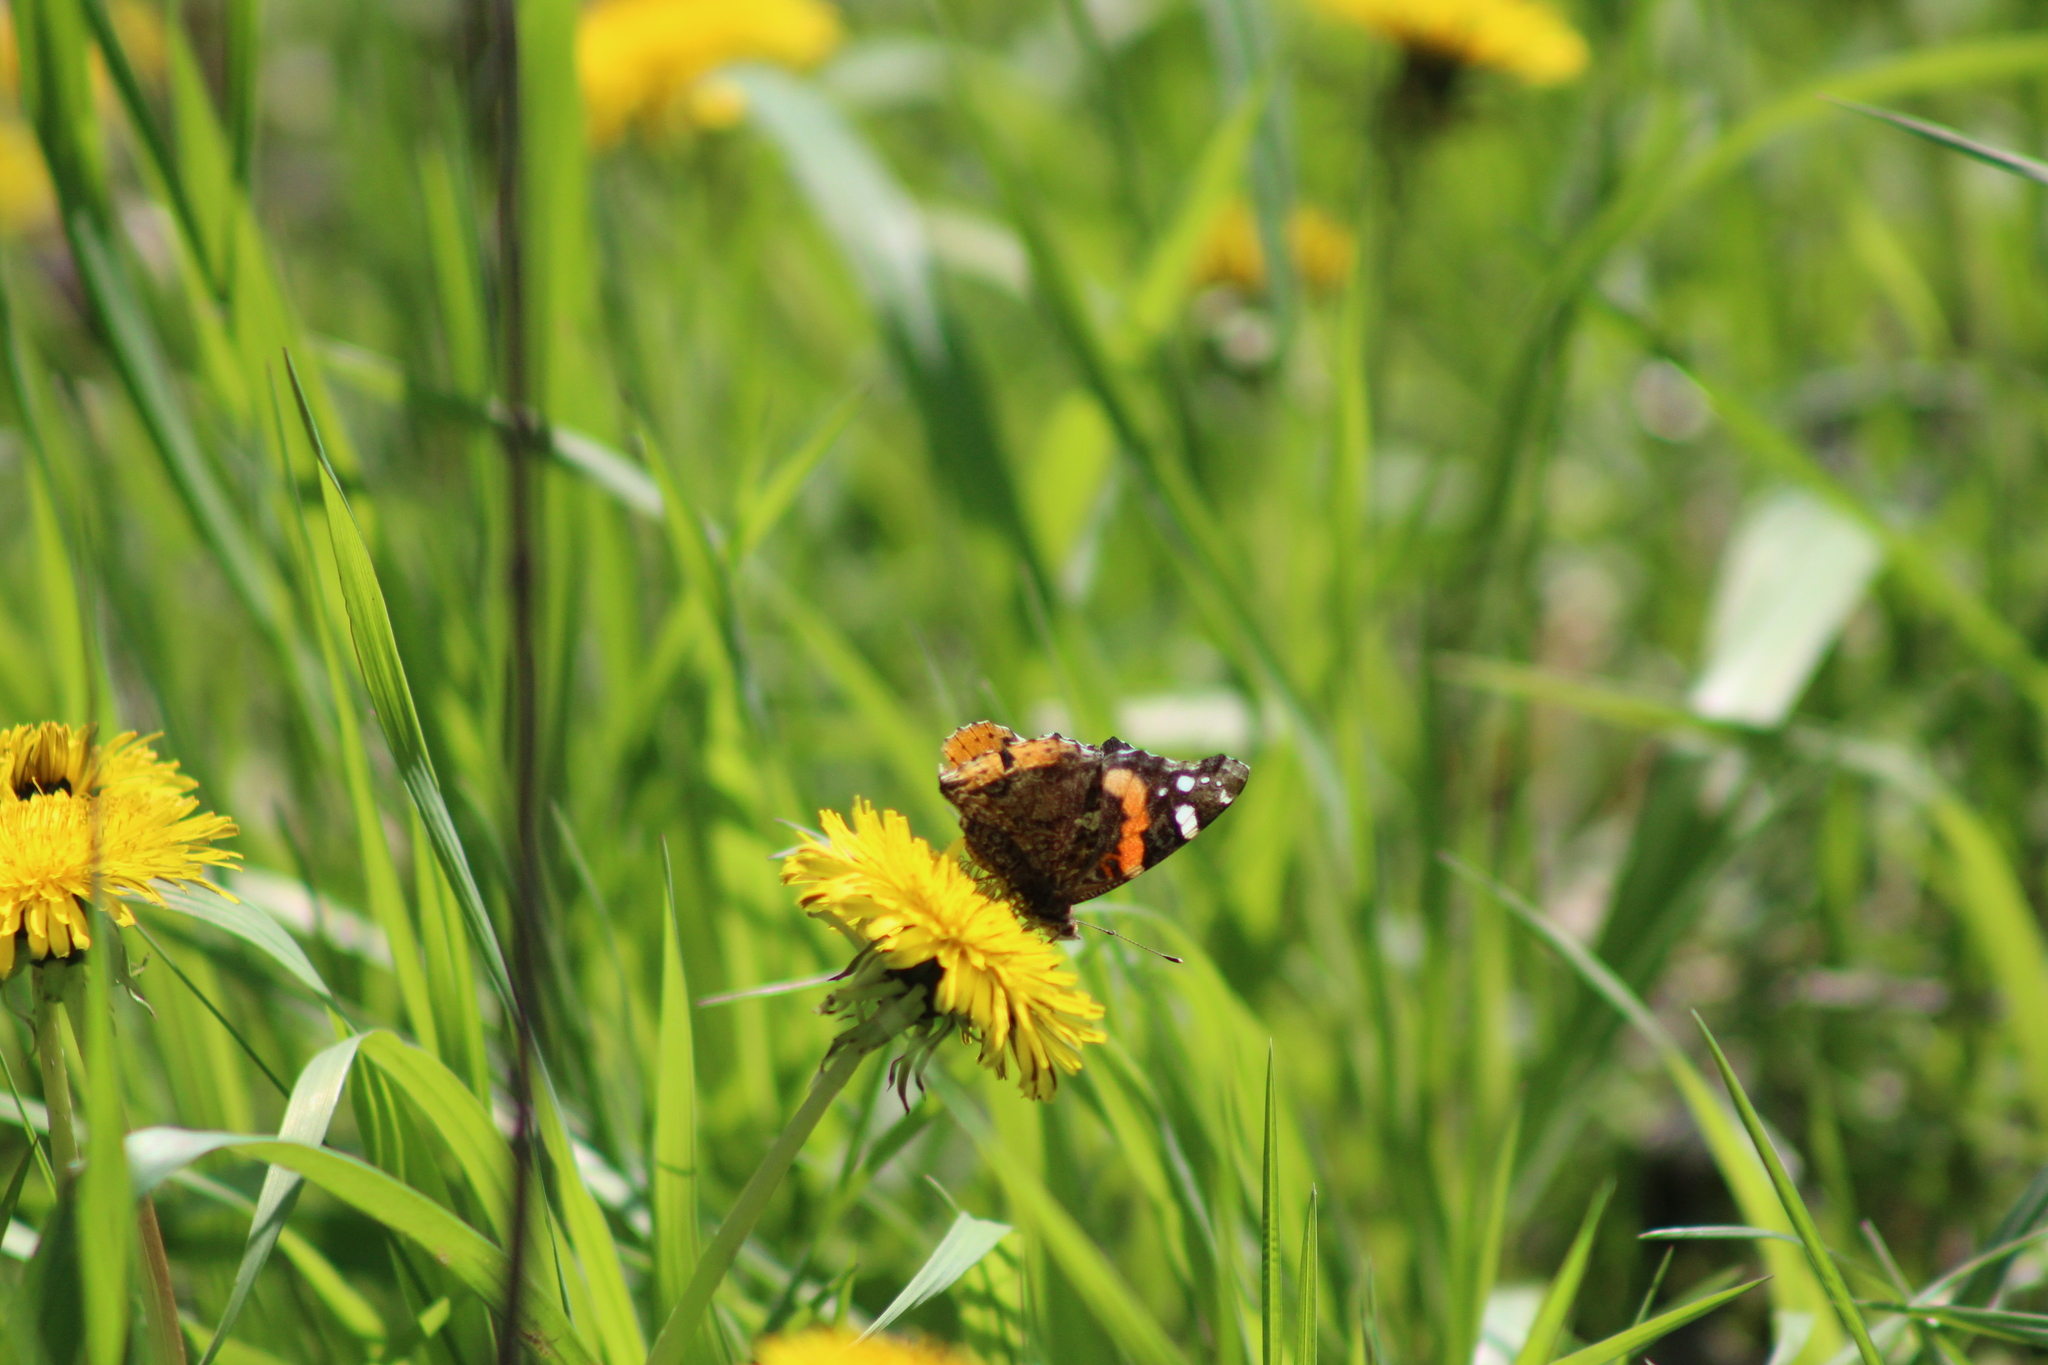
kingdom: Animalia
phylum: Arthropoda
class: Insecta
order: Lepidoptera
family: Nymphalidae
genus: Vanessa
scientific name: Vanessa atalanta
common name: Red admiral
